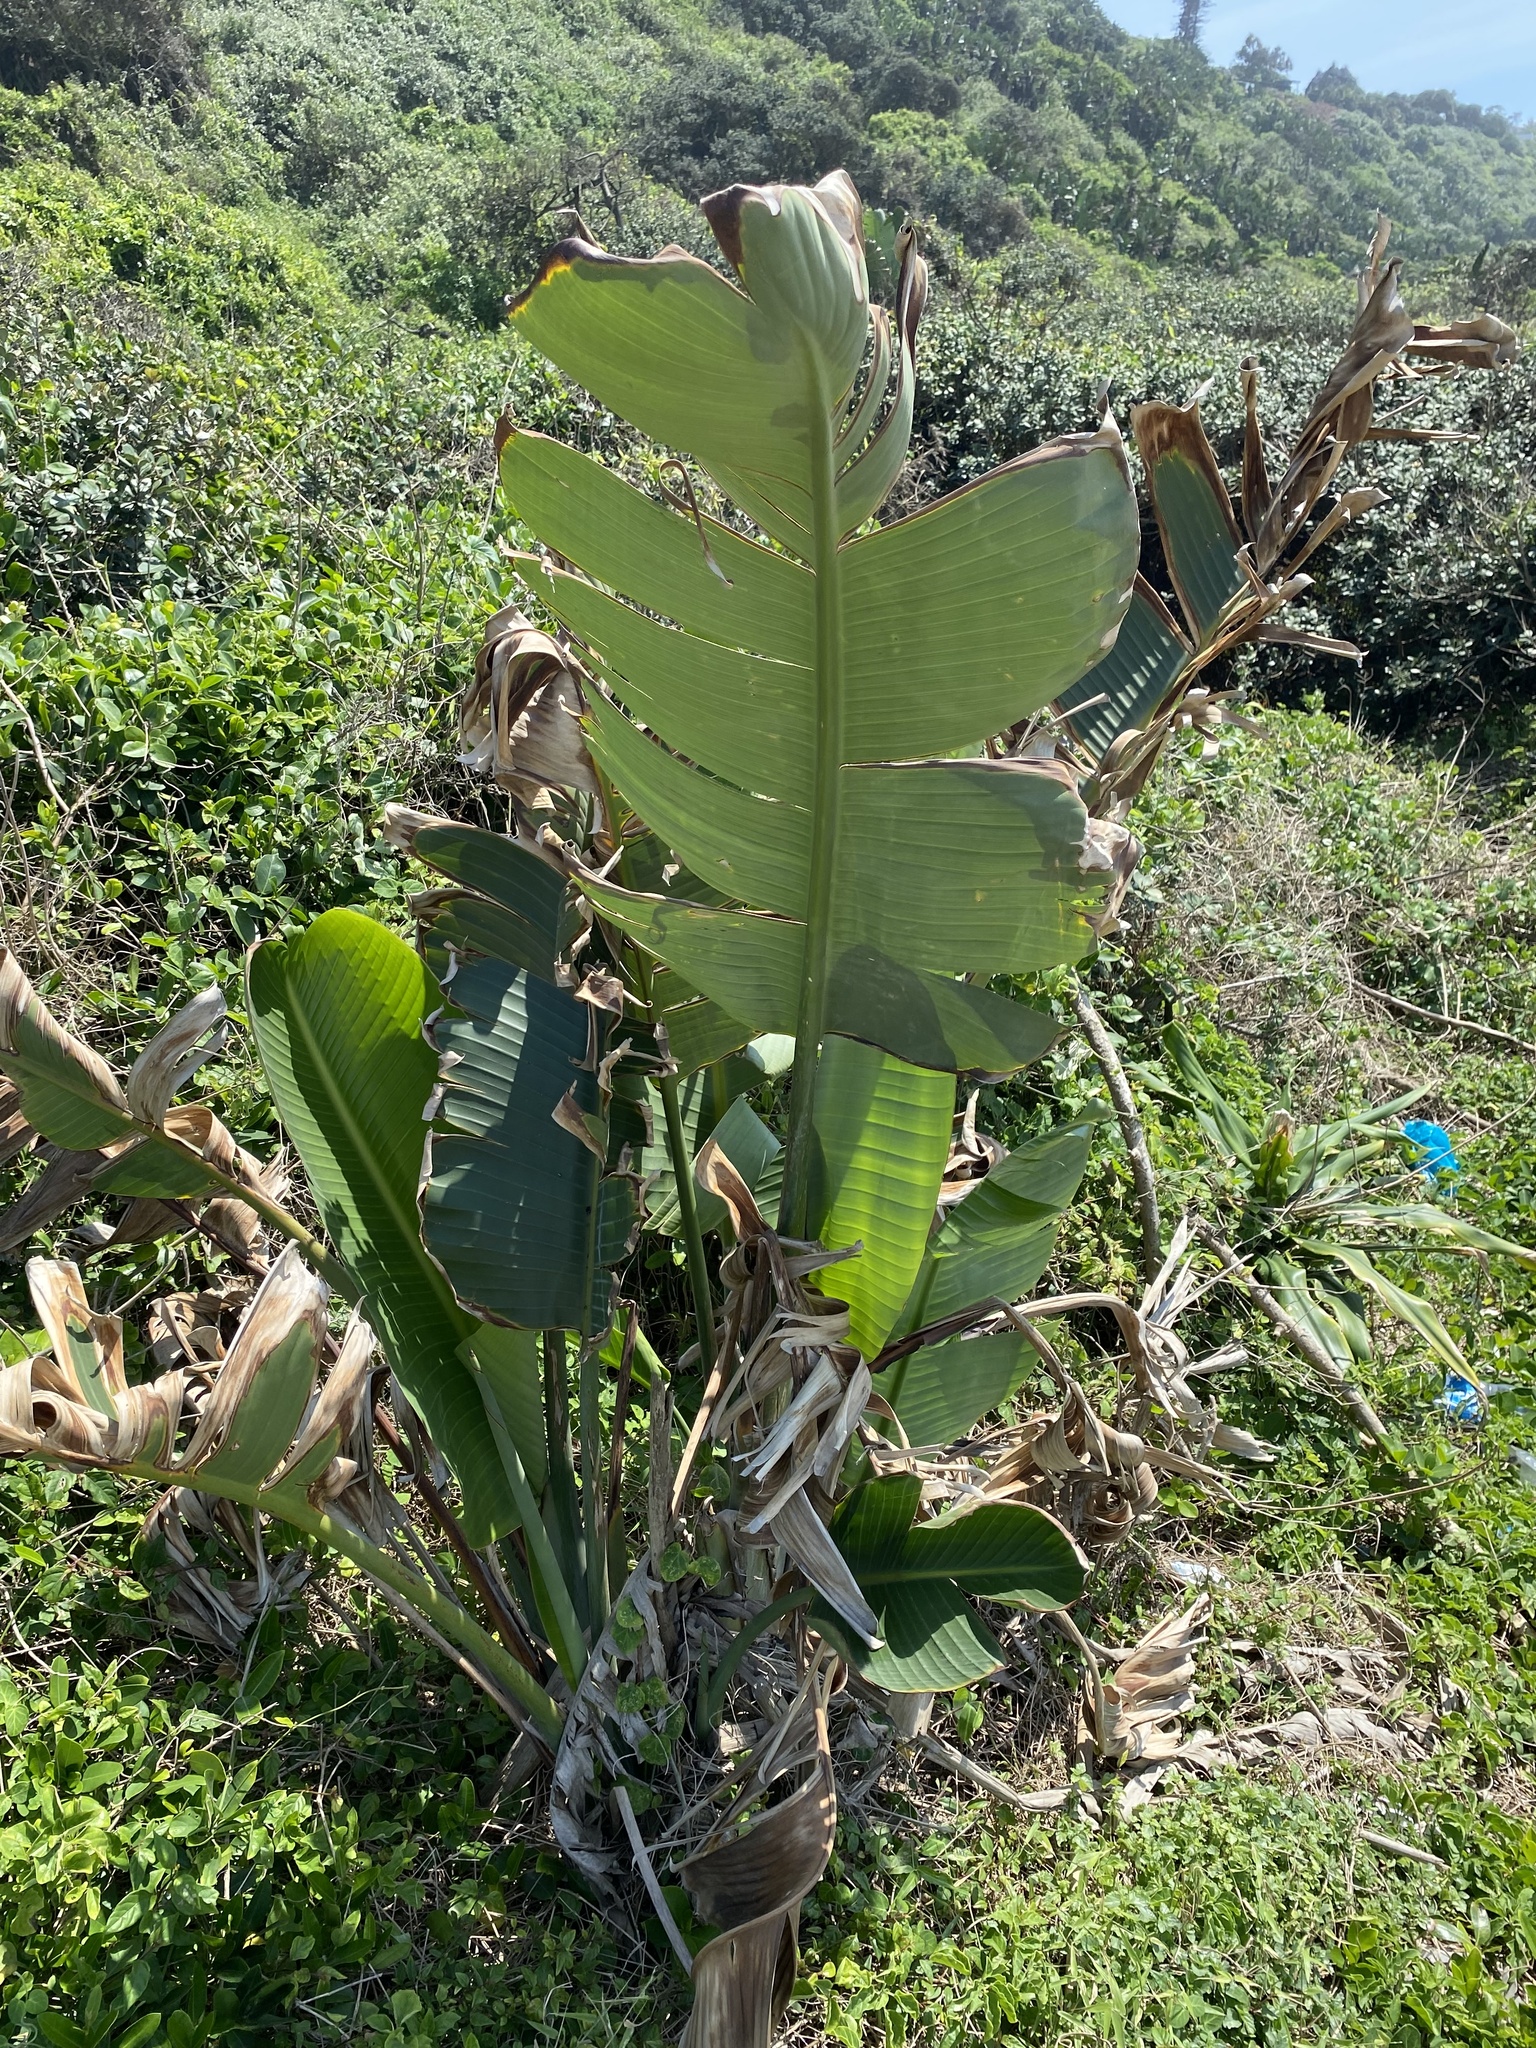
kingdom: Plantae
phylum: Tracheophyta
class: Liliopsida
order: Zingiberales
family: Strelitziaceae
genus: Strelitzia
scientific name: Strelitzia nicolai
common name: Bird-of-paradise tree
